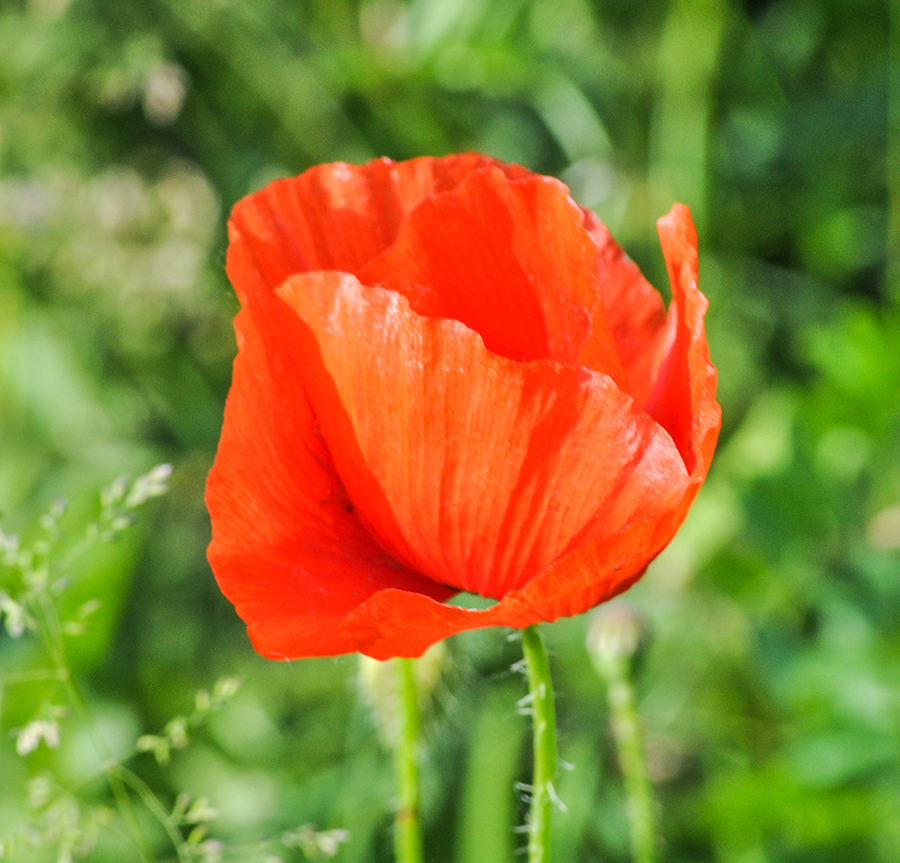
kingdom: Plantae
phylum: Tracheophyta
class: Magnoliopsida
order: Ranunculales
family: Papaveraceae
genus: Papaver
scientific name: Papaver rhoeas
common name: Corn poppy
